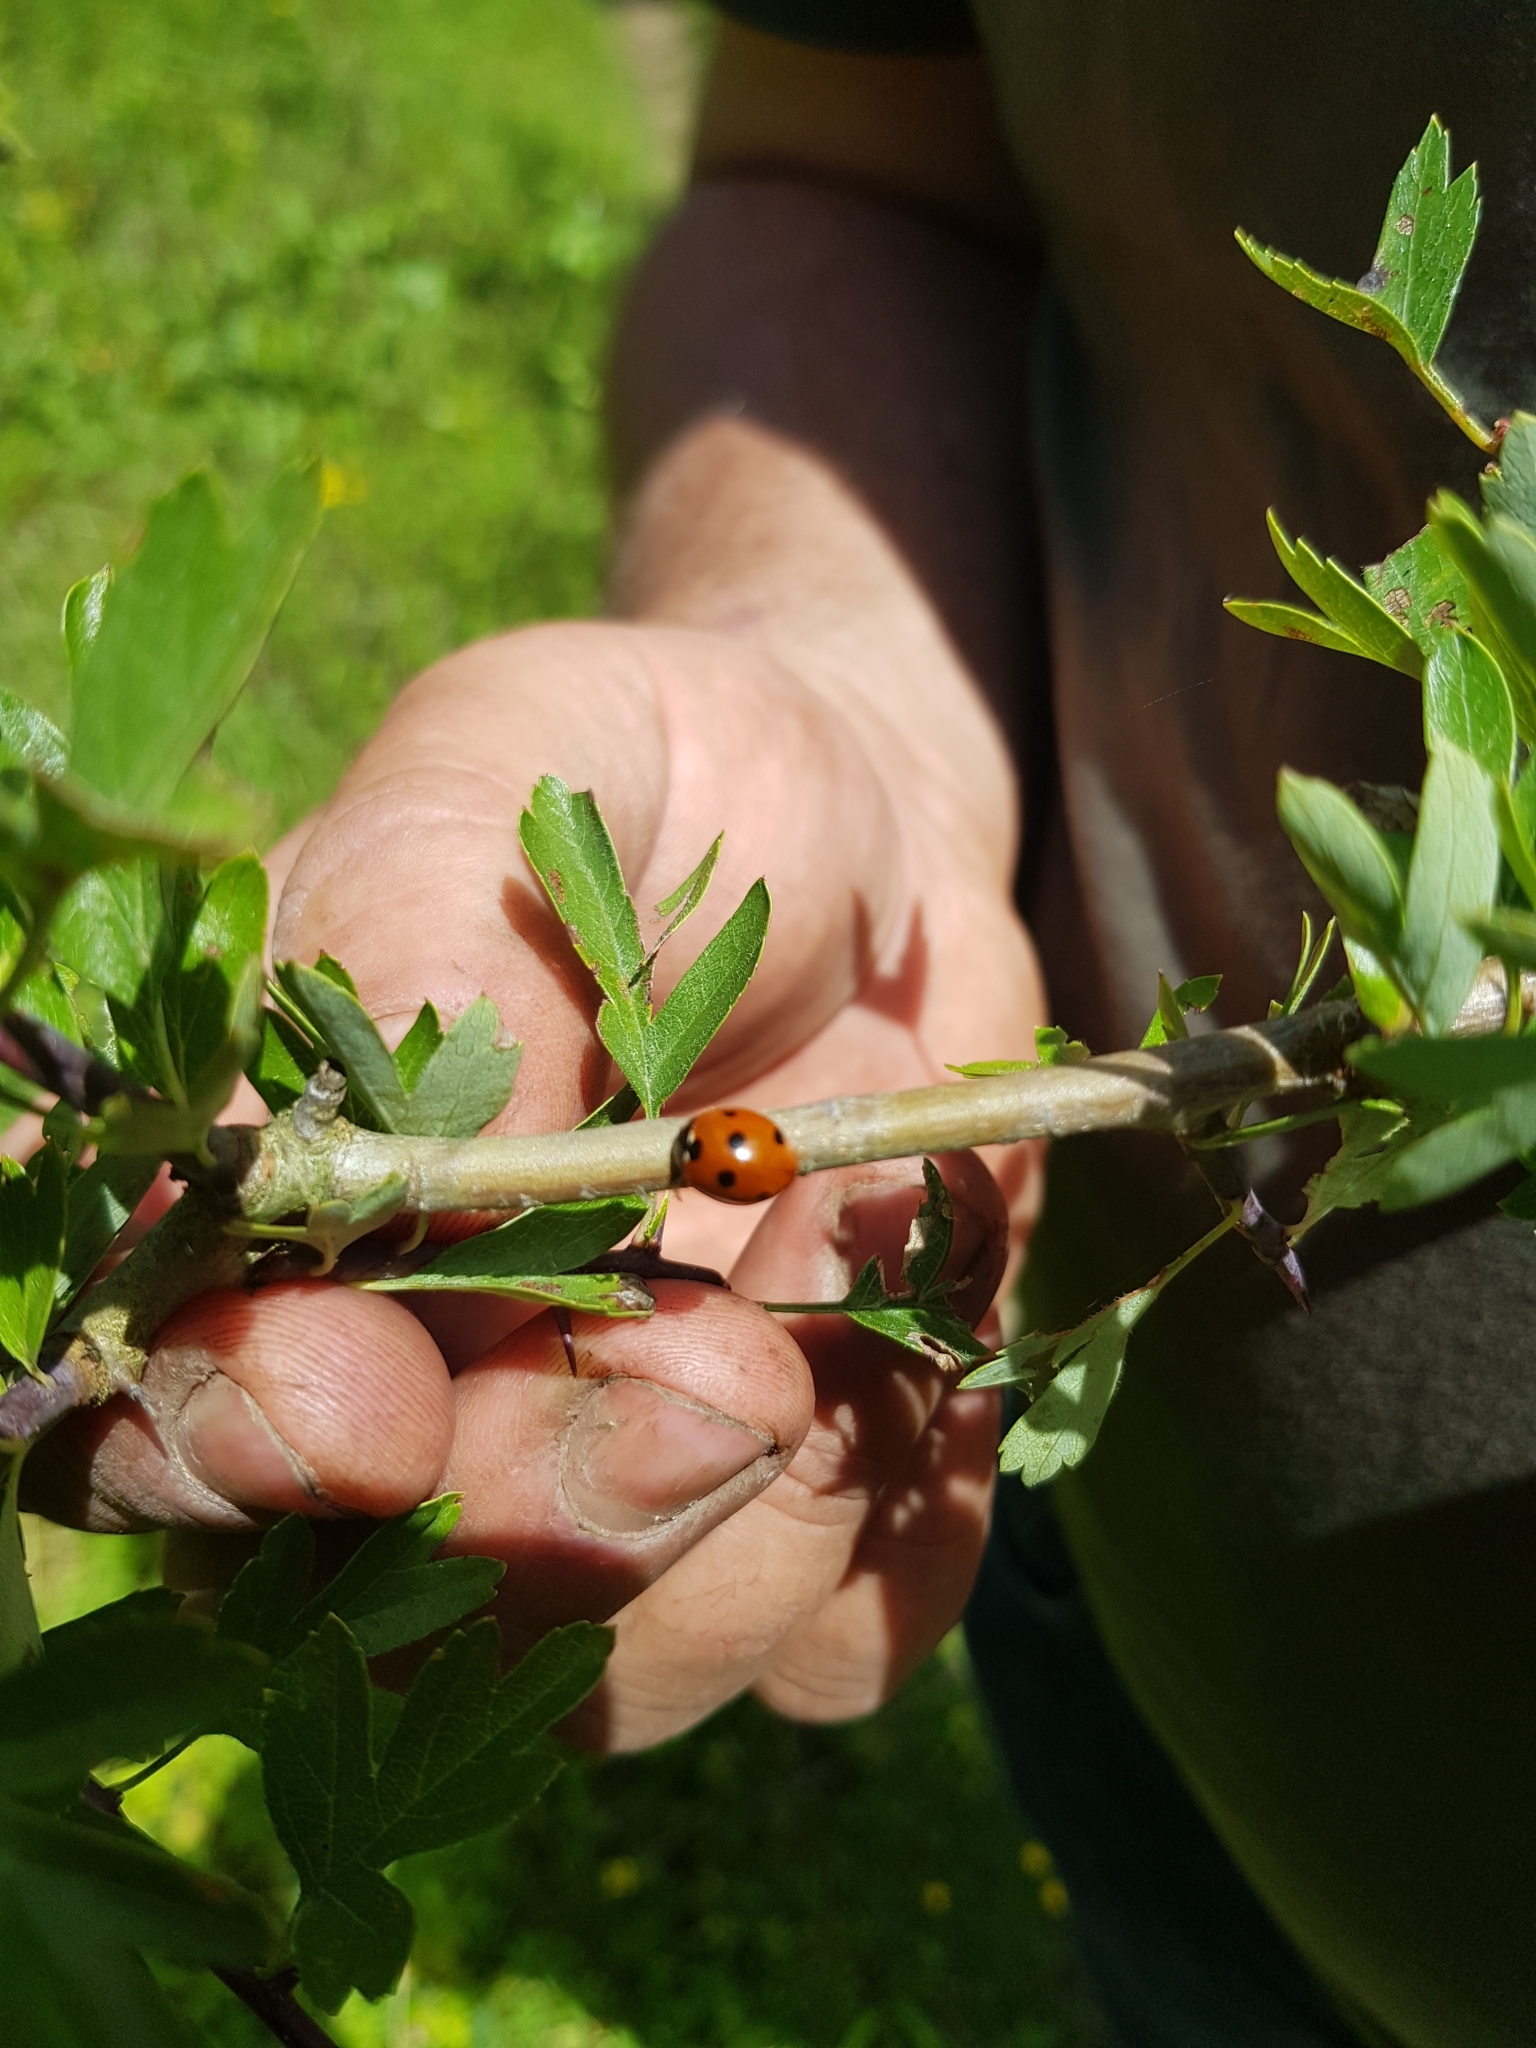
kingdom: Animalia
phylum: Arthropoda
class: Insecta
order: Coleoptera
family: Coccinellidae
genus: Coccinella
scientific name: Coccinella septempunctata
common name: Sevenspotted lady beetle
